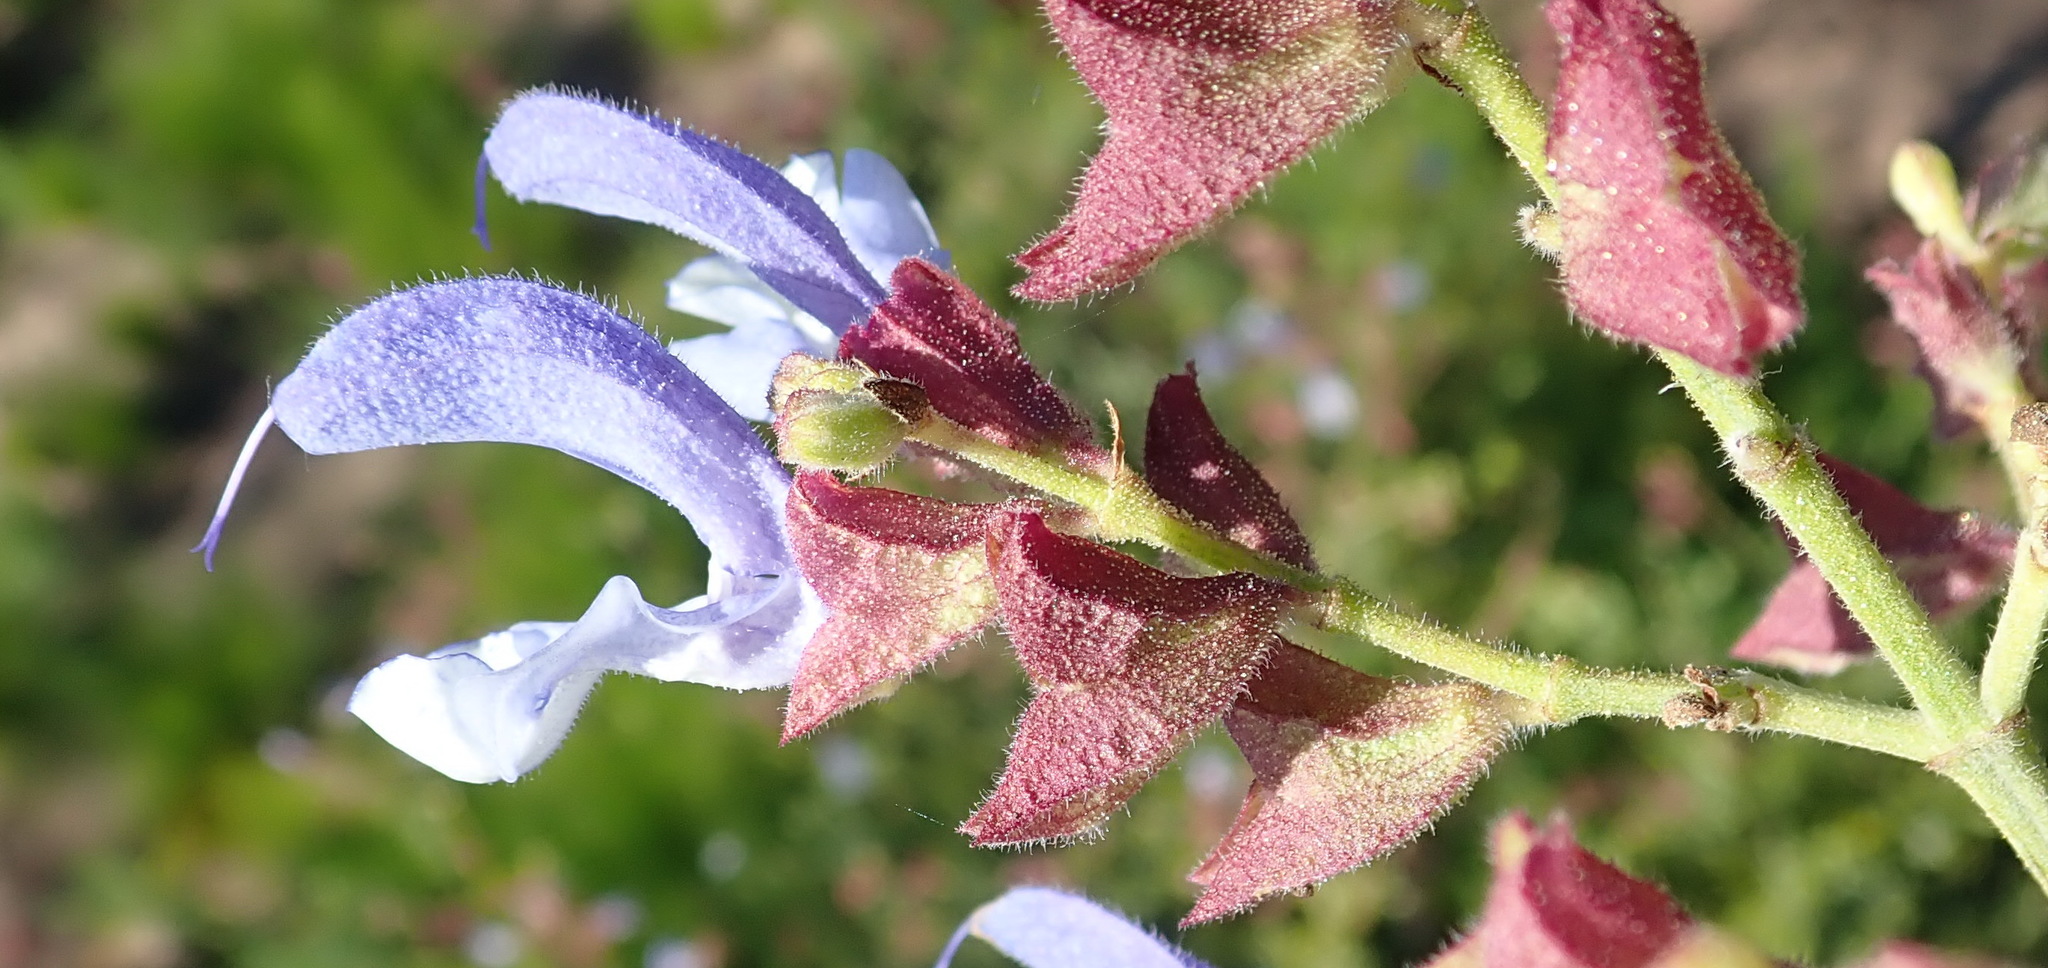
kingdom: Plantae
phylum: Tracheophyta
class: Magnoliopsida
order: Lamiales
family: Lamiaceae
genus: Salvia
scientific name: Salvia chamelaeagnea
